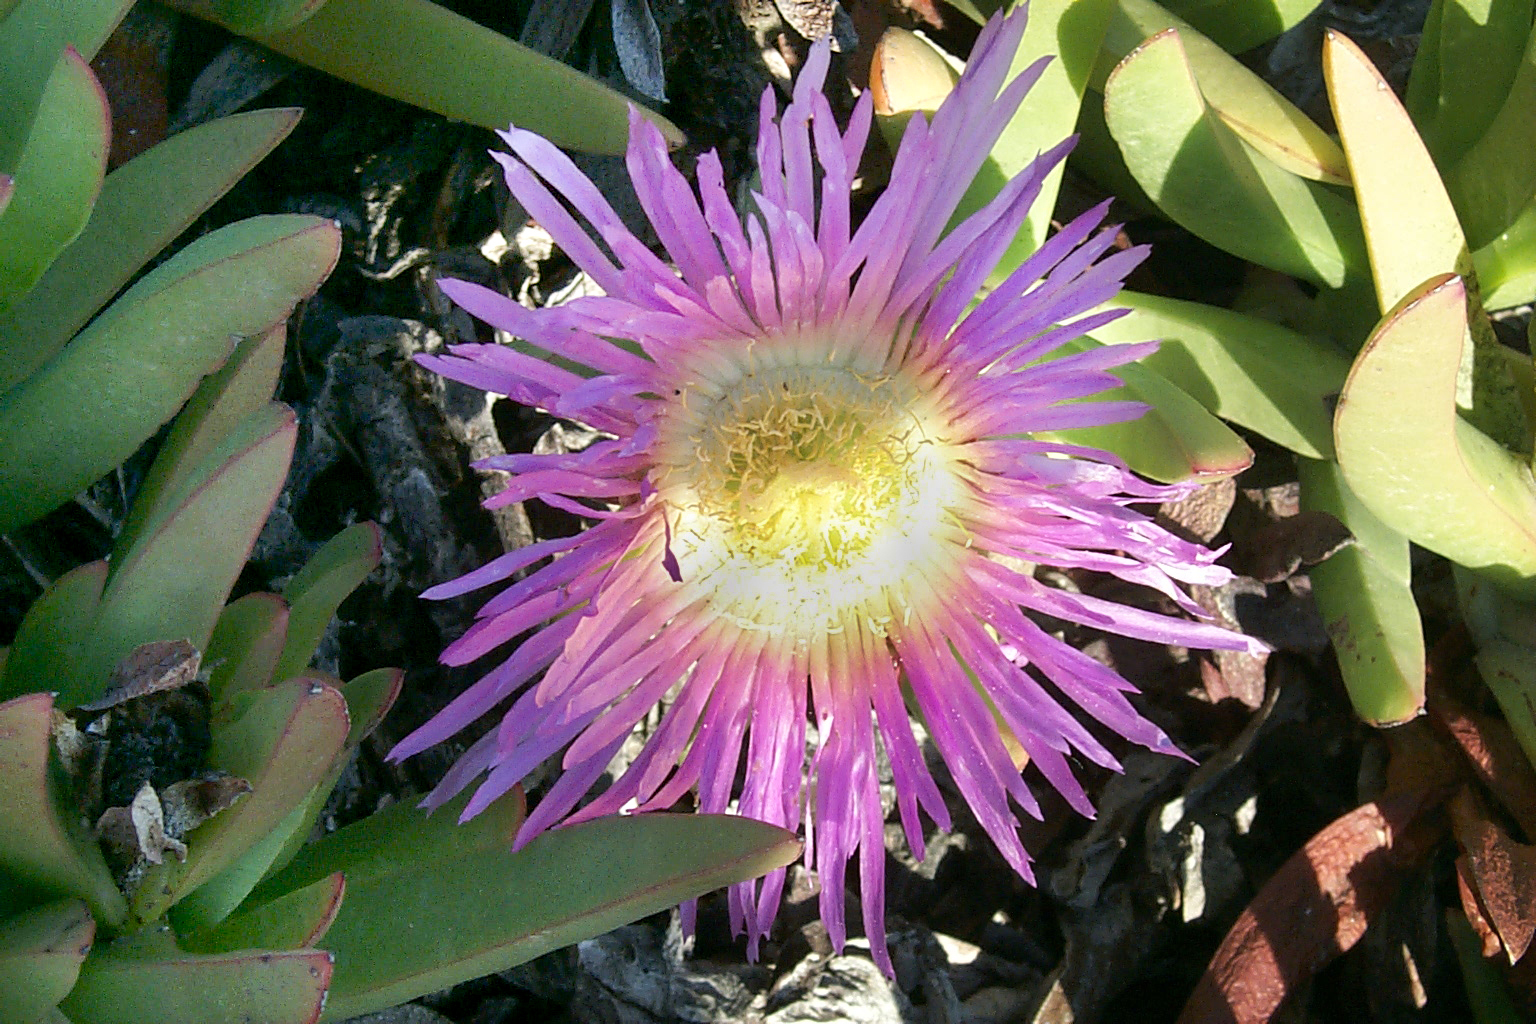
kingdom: Plantae
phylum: Tracheophyta
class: Magnoliopsida
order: Caryophyllales
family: Aizoaceae
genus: Carpobrotus
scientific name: Carpobrotus chilensis
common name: Sea fig
